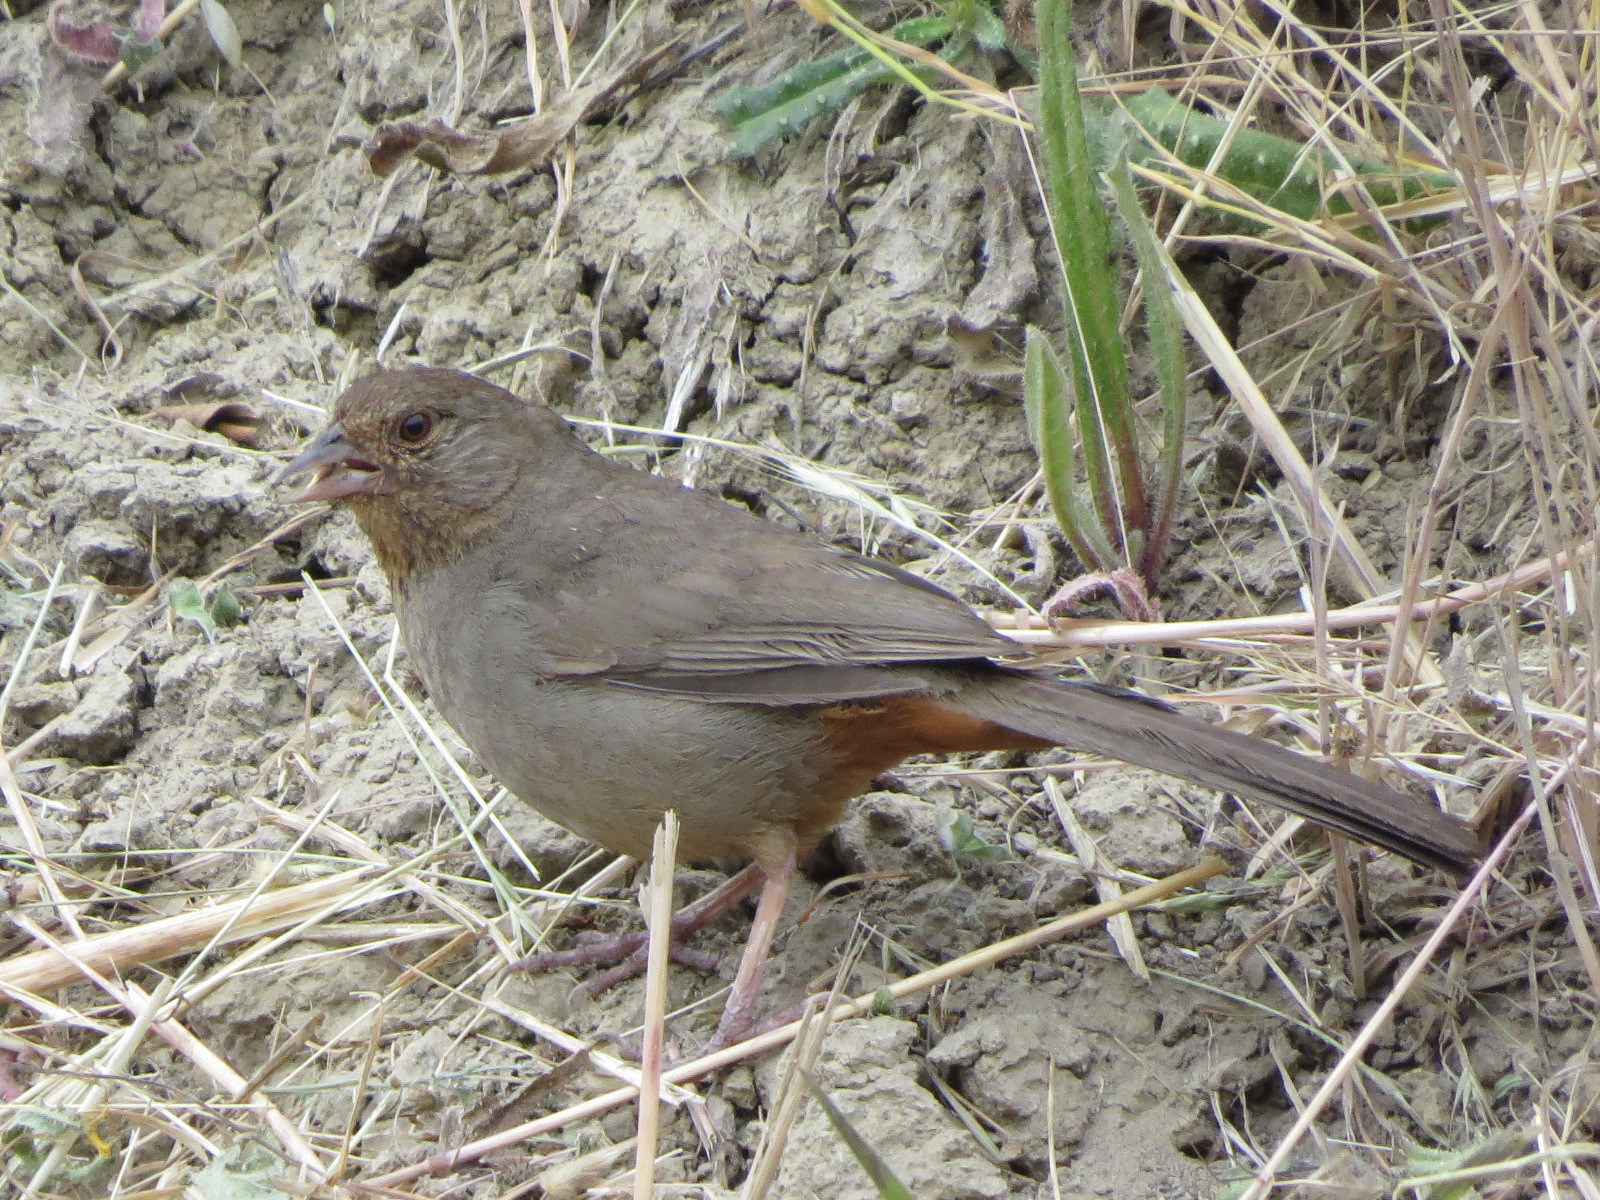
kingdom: Animalia
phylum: Chordata
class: Aves
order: Passeriformes
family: Passerellidae
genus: Melozone
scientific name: Melozone crissalis
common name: California towhee
